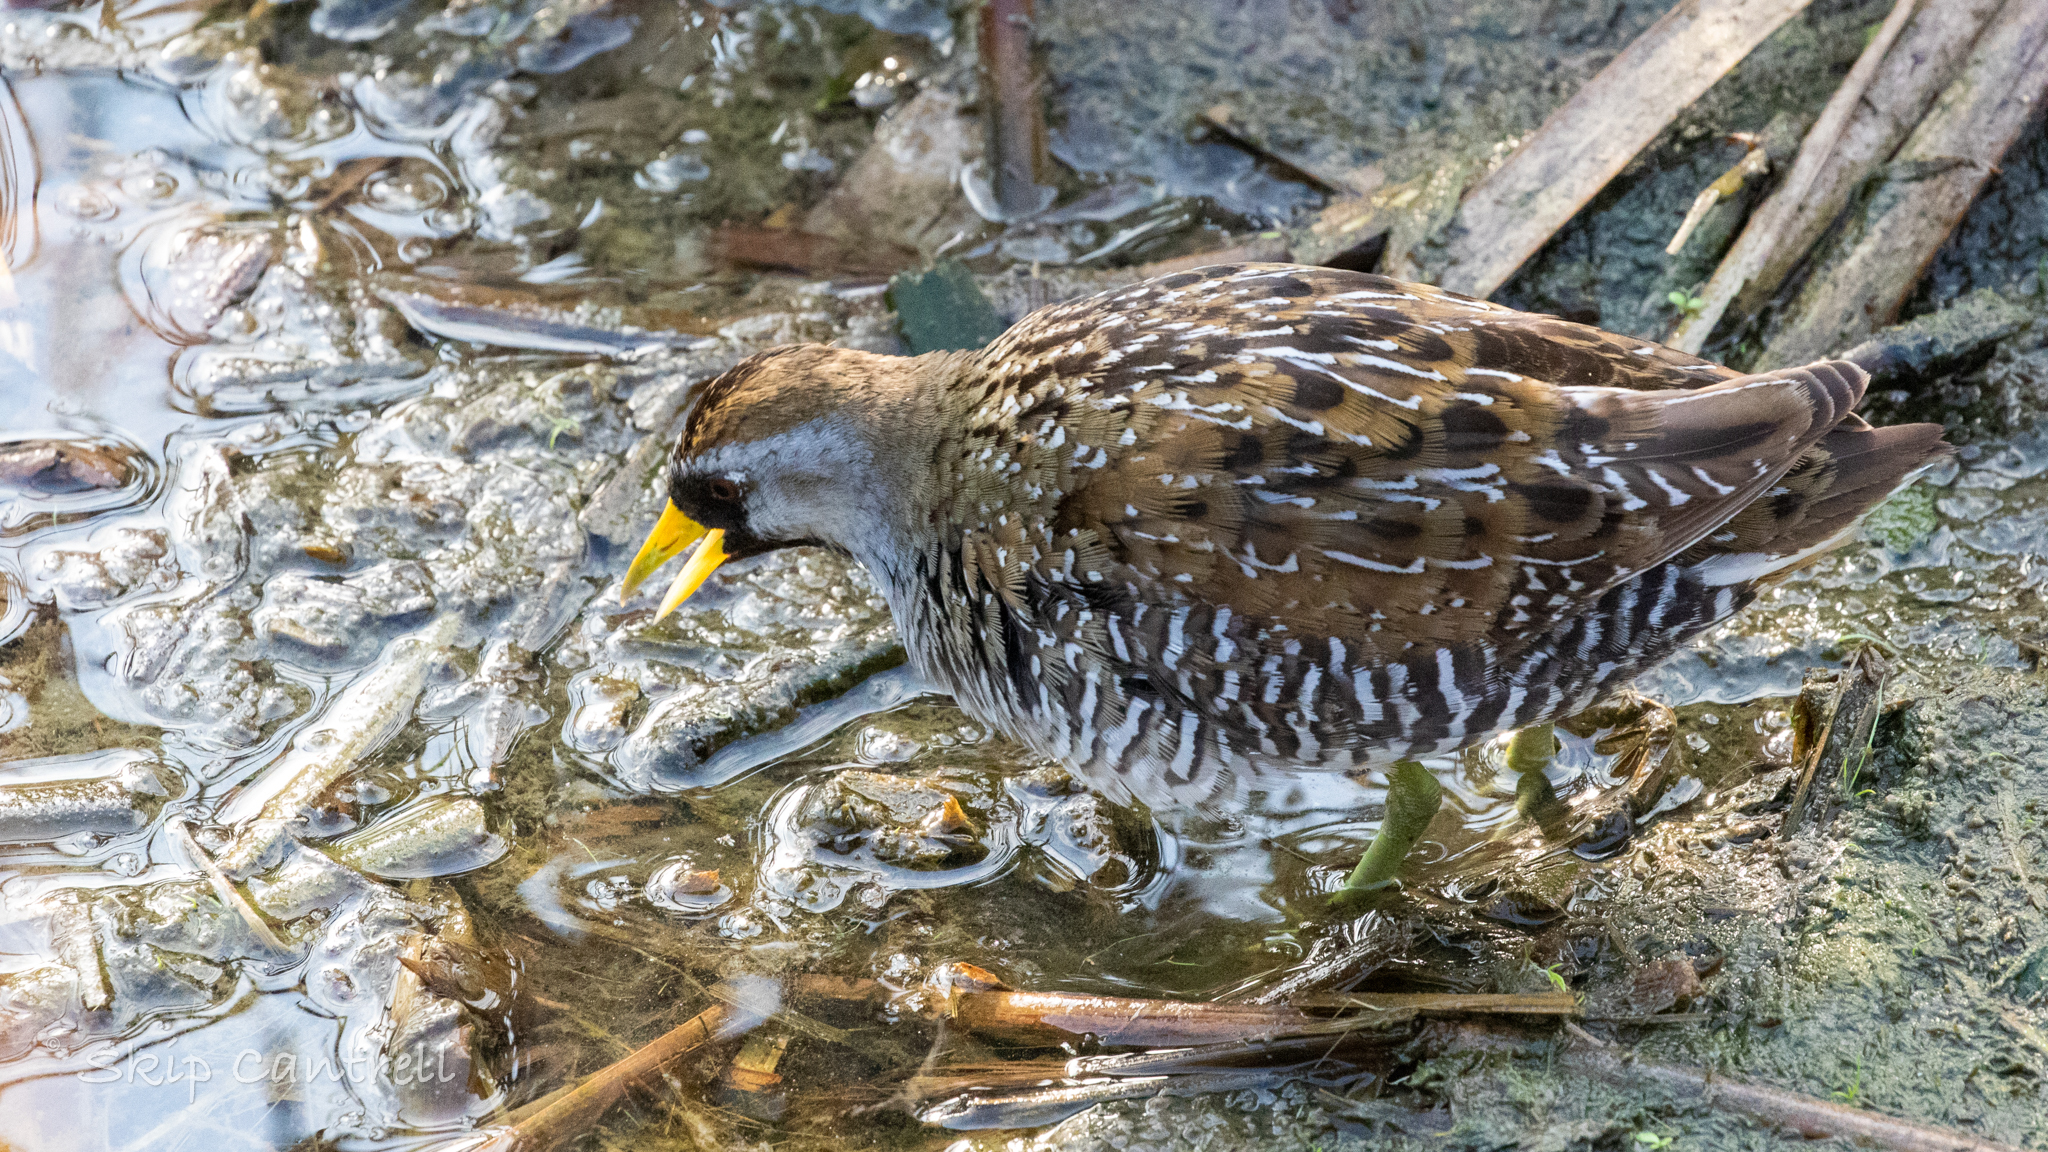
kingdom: Animalia
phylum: Chordata
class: Aves
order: Gruiformes
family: Rallidae
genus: Porzana
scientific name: Porzana carolina
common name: Sora
